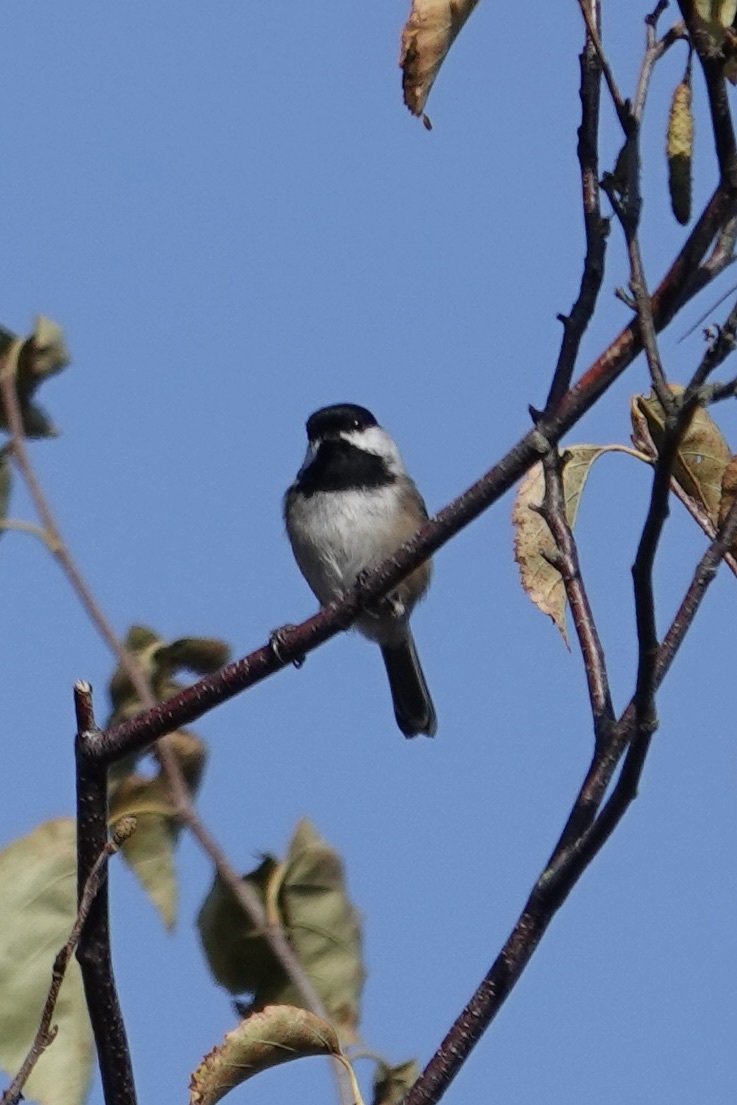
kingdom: Animalia
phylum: Chordata
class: Aves
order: Passeriformes
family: Paridae
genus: Poecile
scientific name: Poecile atricapillus
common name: Black-capped chickadee
